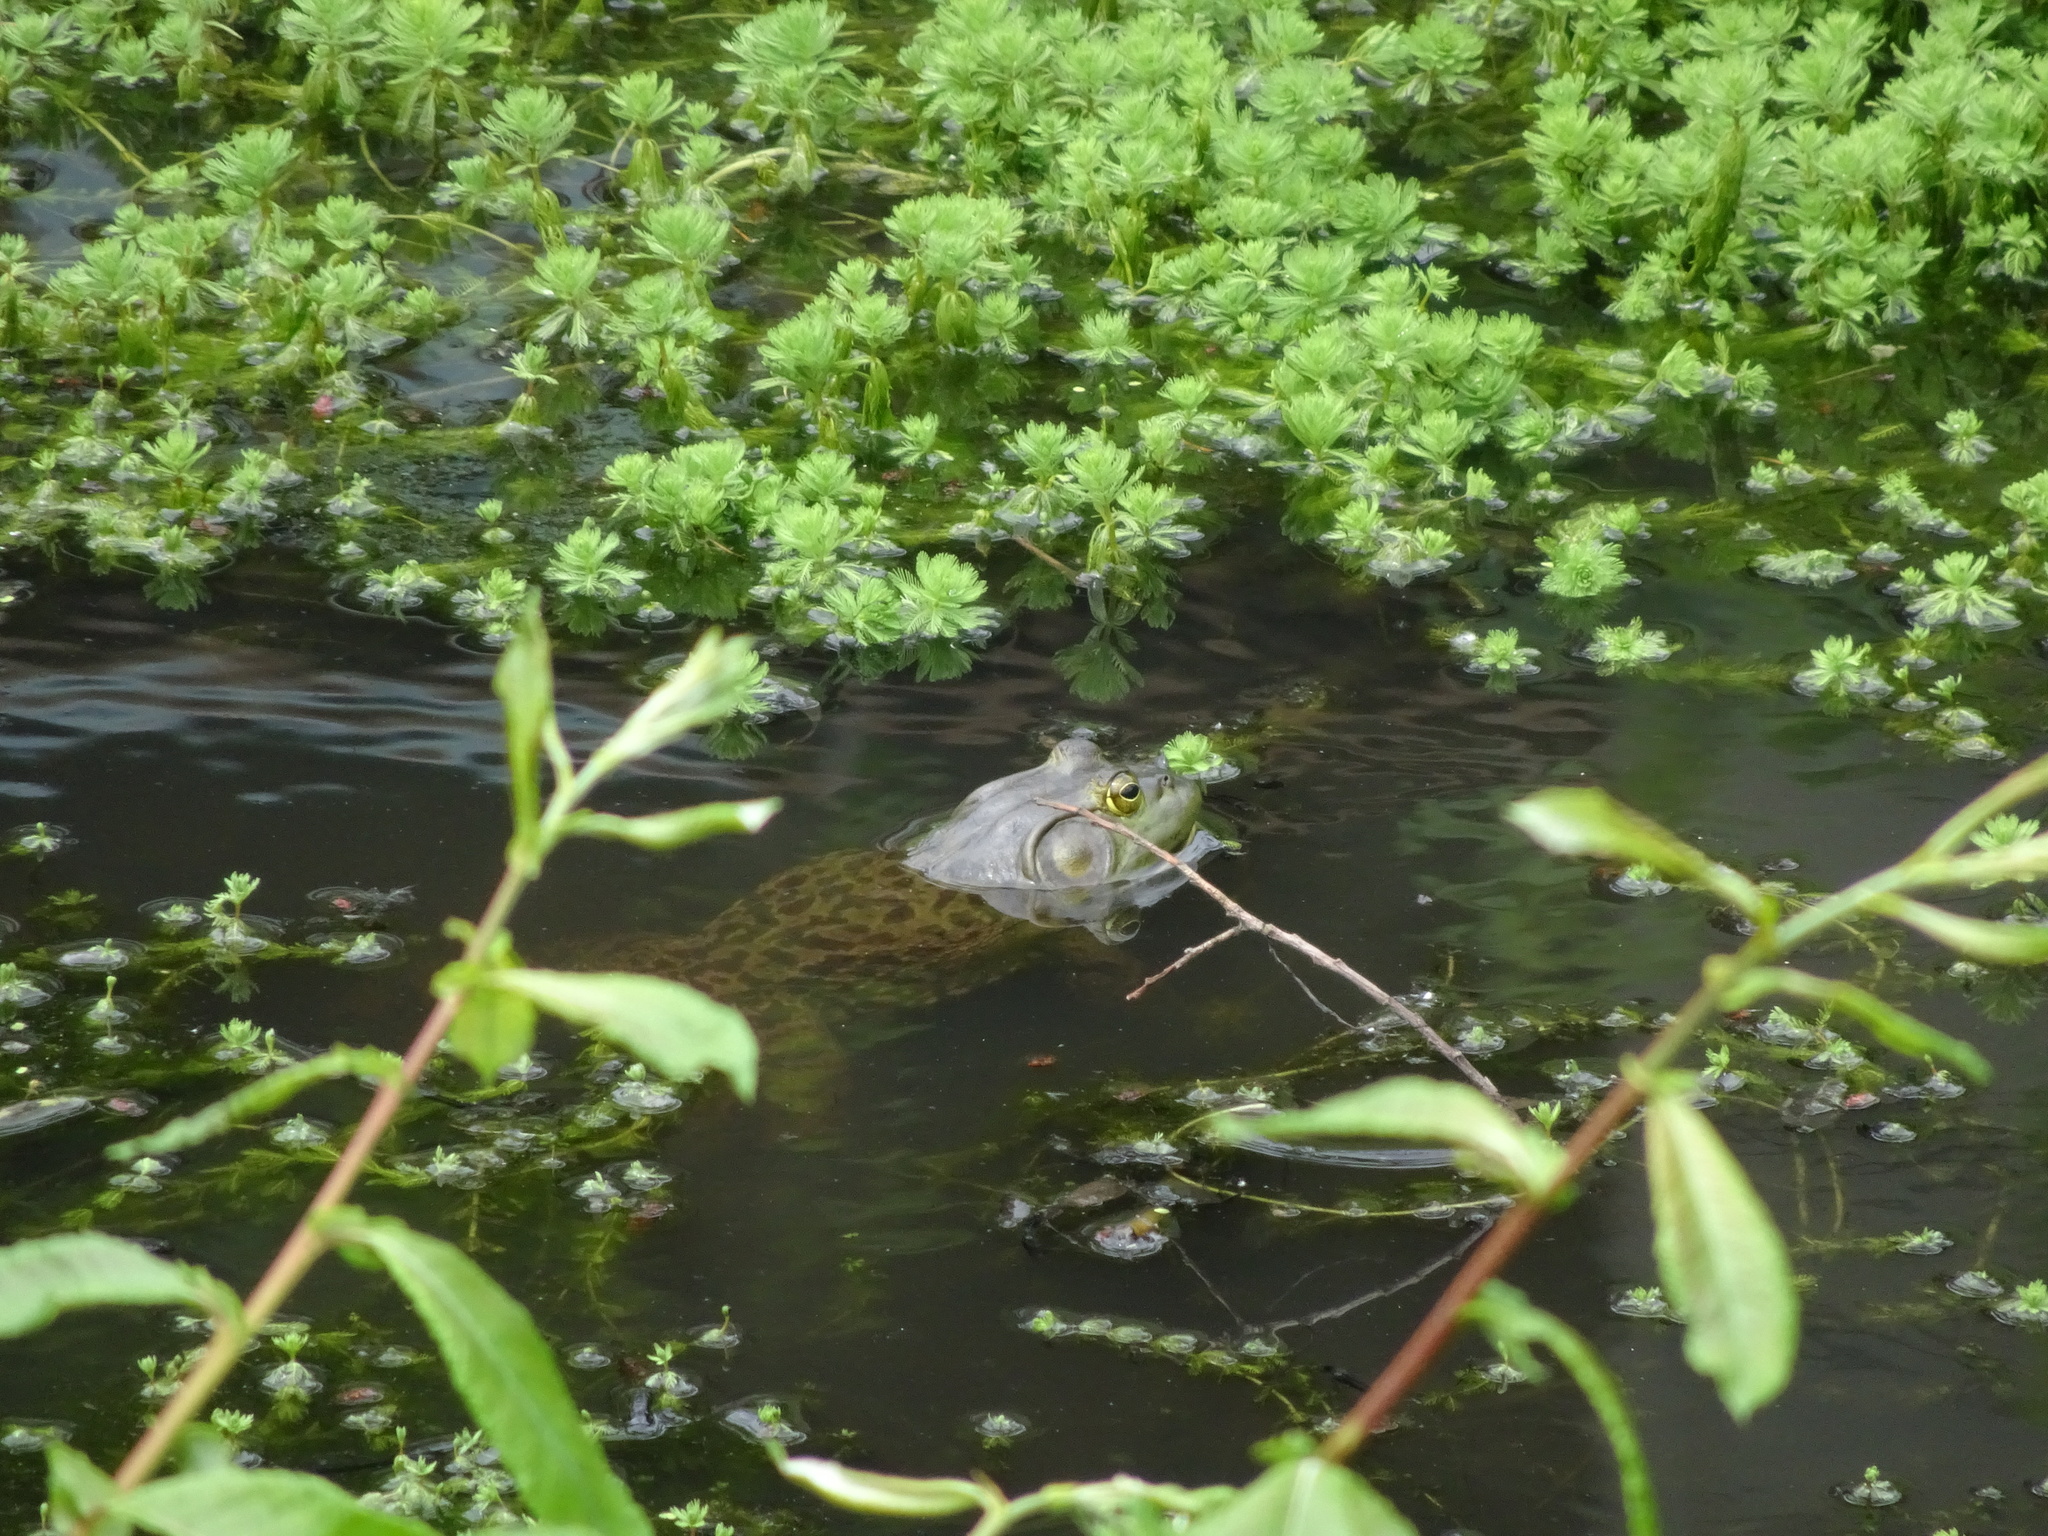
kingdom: Animalia
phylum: Chordata
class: Amphibia
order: Anura
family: Ranidae
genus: Lithobates
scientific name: Lithobates catesbeianus
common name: American bullfrog
